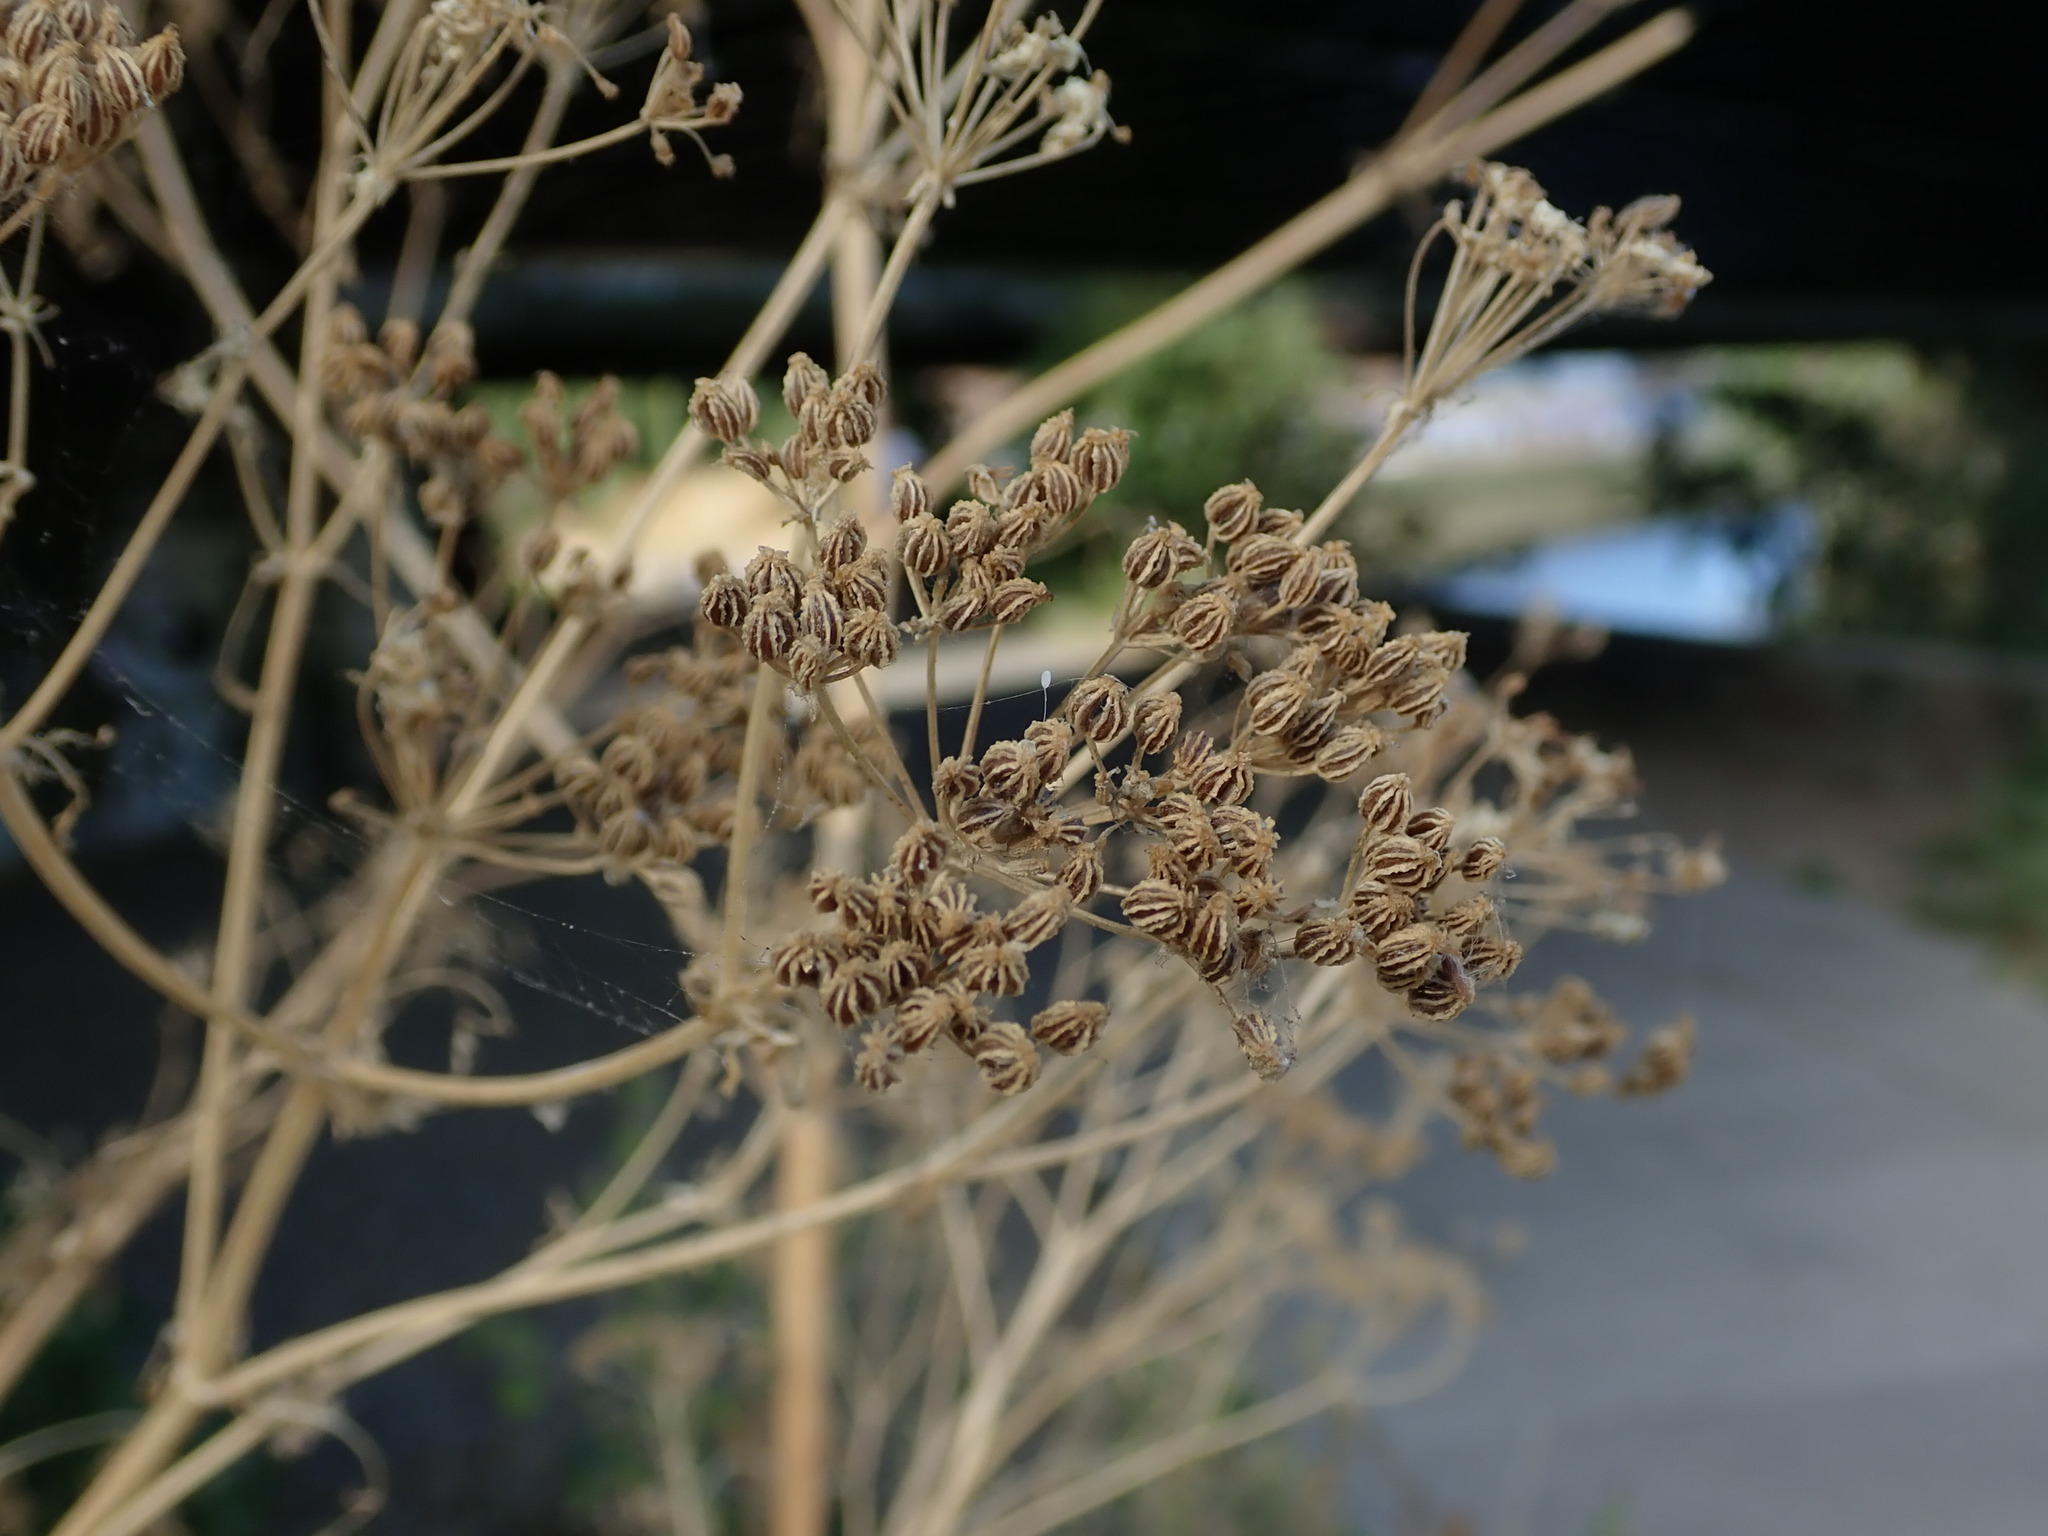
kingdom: Plantae
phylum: Tracheophyta
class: Magnoliopsida
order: Apiales
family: Apiaceae
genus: Conium
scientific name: Conium maculatum
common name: Hemlock
